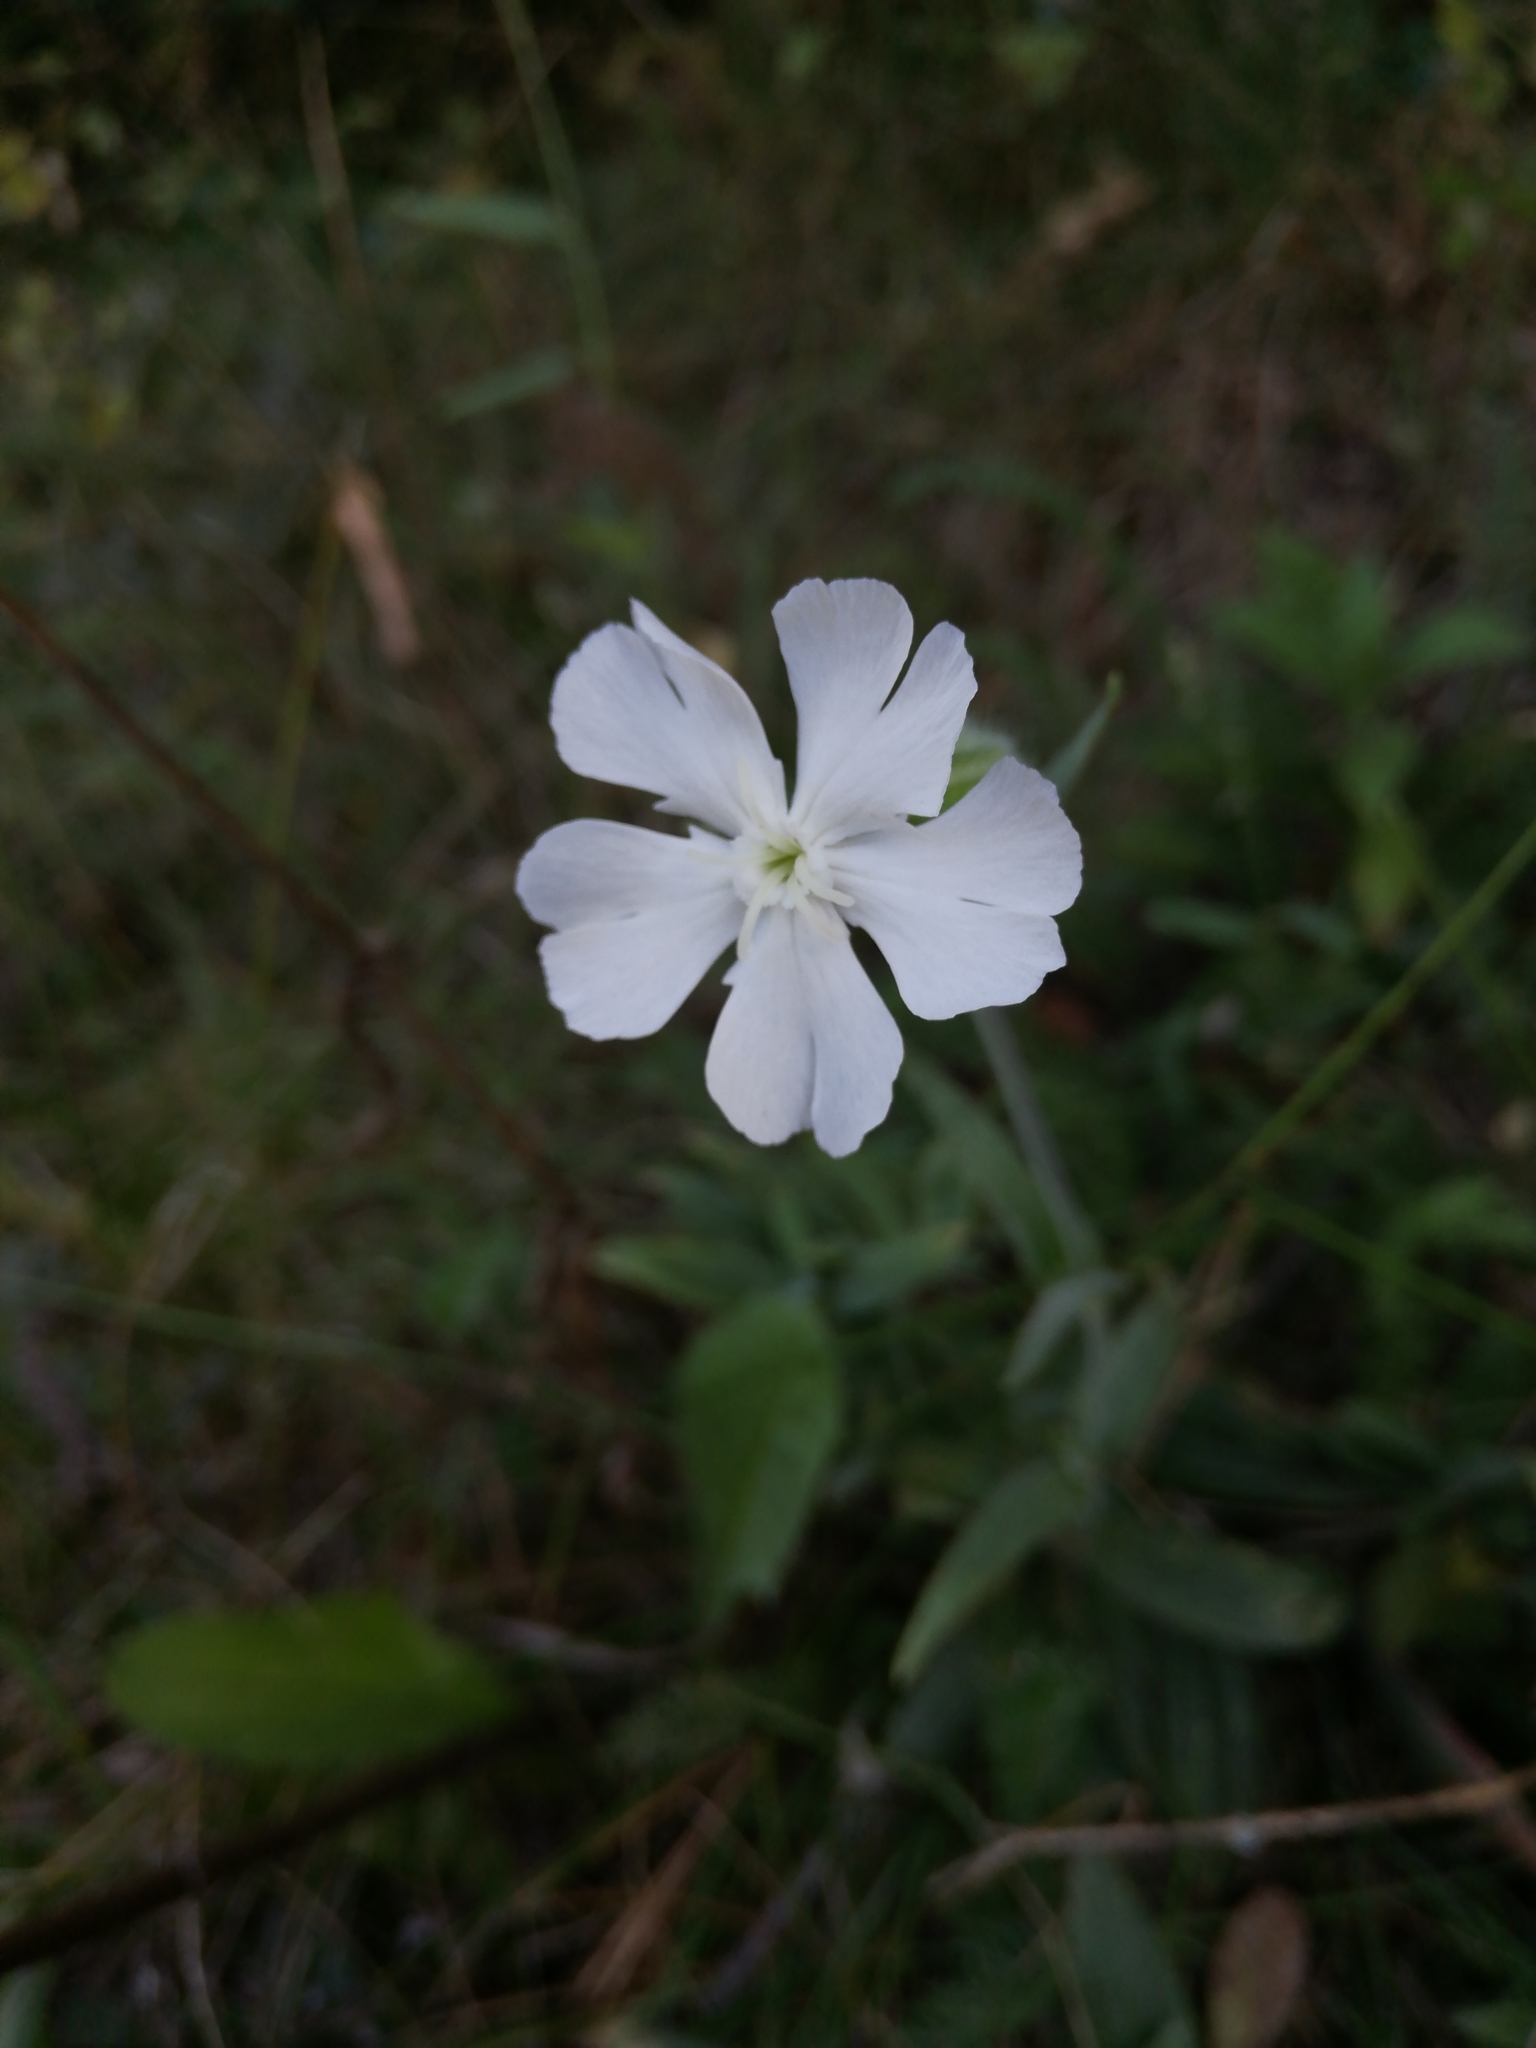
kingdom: Plantae
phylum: Tracheophyta
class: Magnoliopsida
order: Caryophyllales
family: Caryophyllaceae
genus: Silene
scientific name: Silene latifolia
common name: White campion
